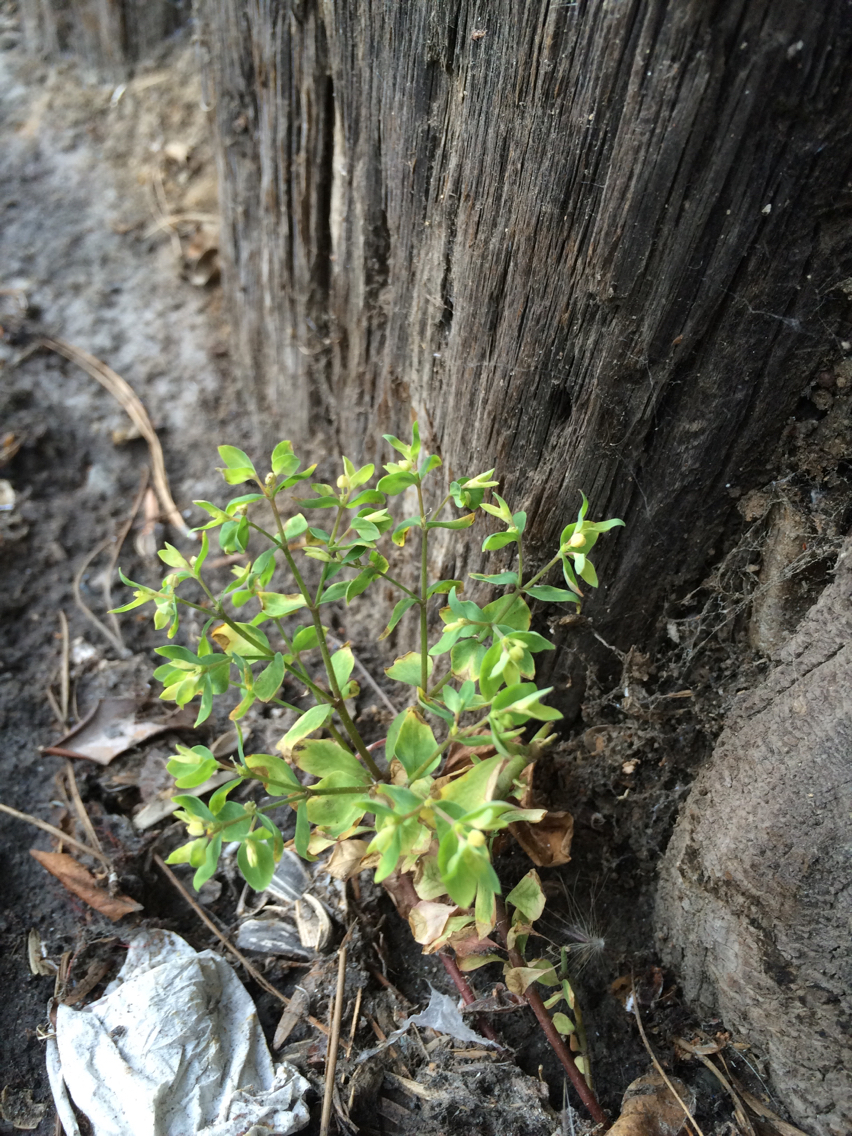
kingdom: Plantae
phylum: Tracheophyta
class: Magnoliopsida
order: Malpighiales
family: Euphorbiaceae
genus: Euphorbia
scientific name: Euphorbia peplus
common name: Petty spurge
